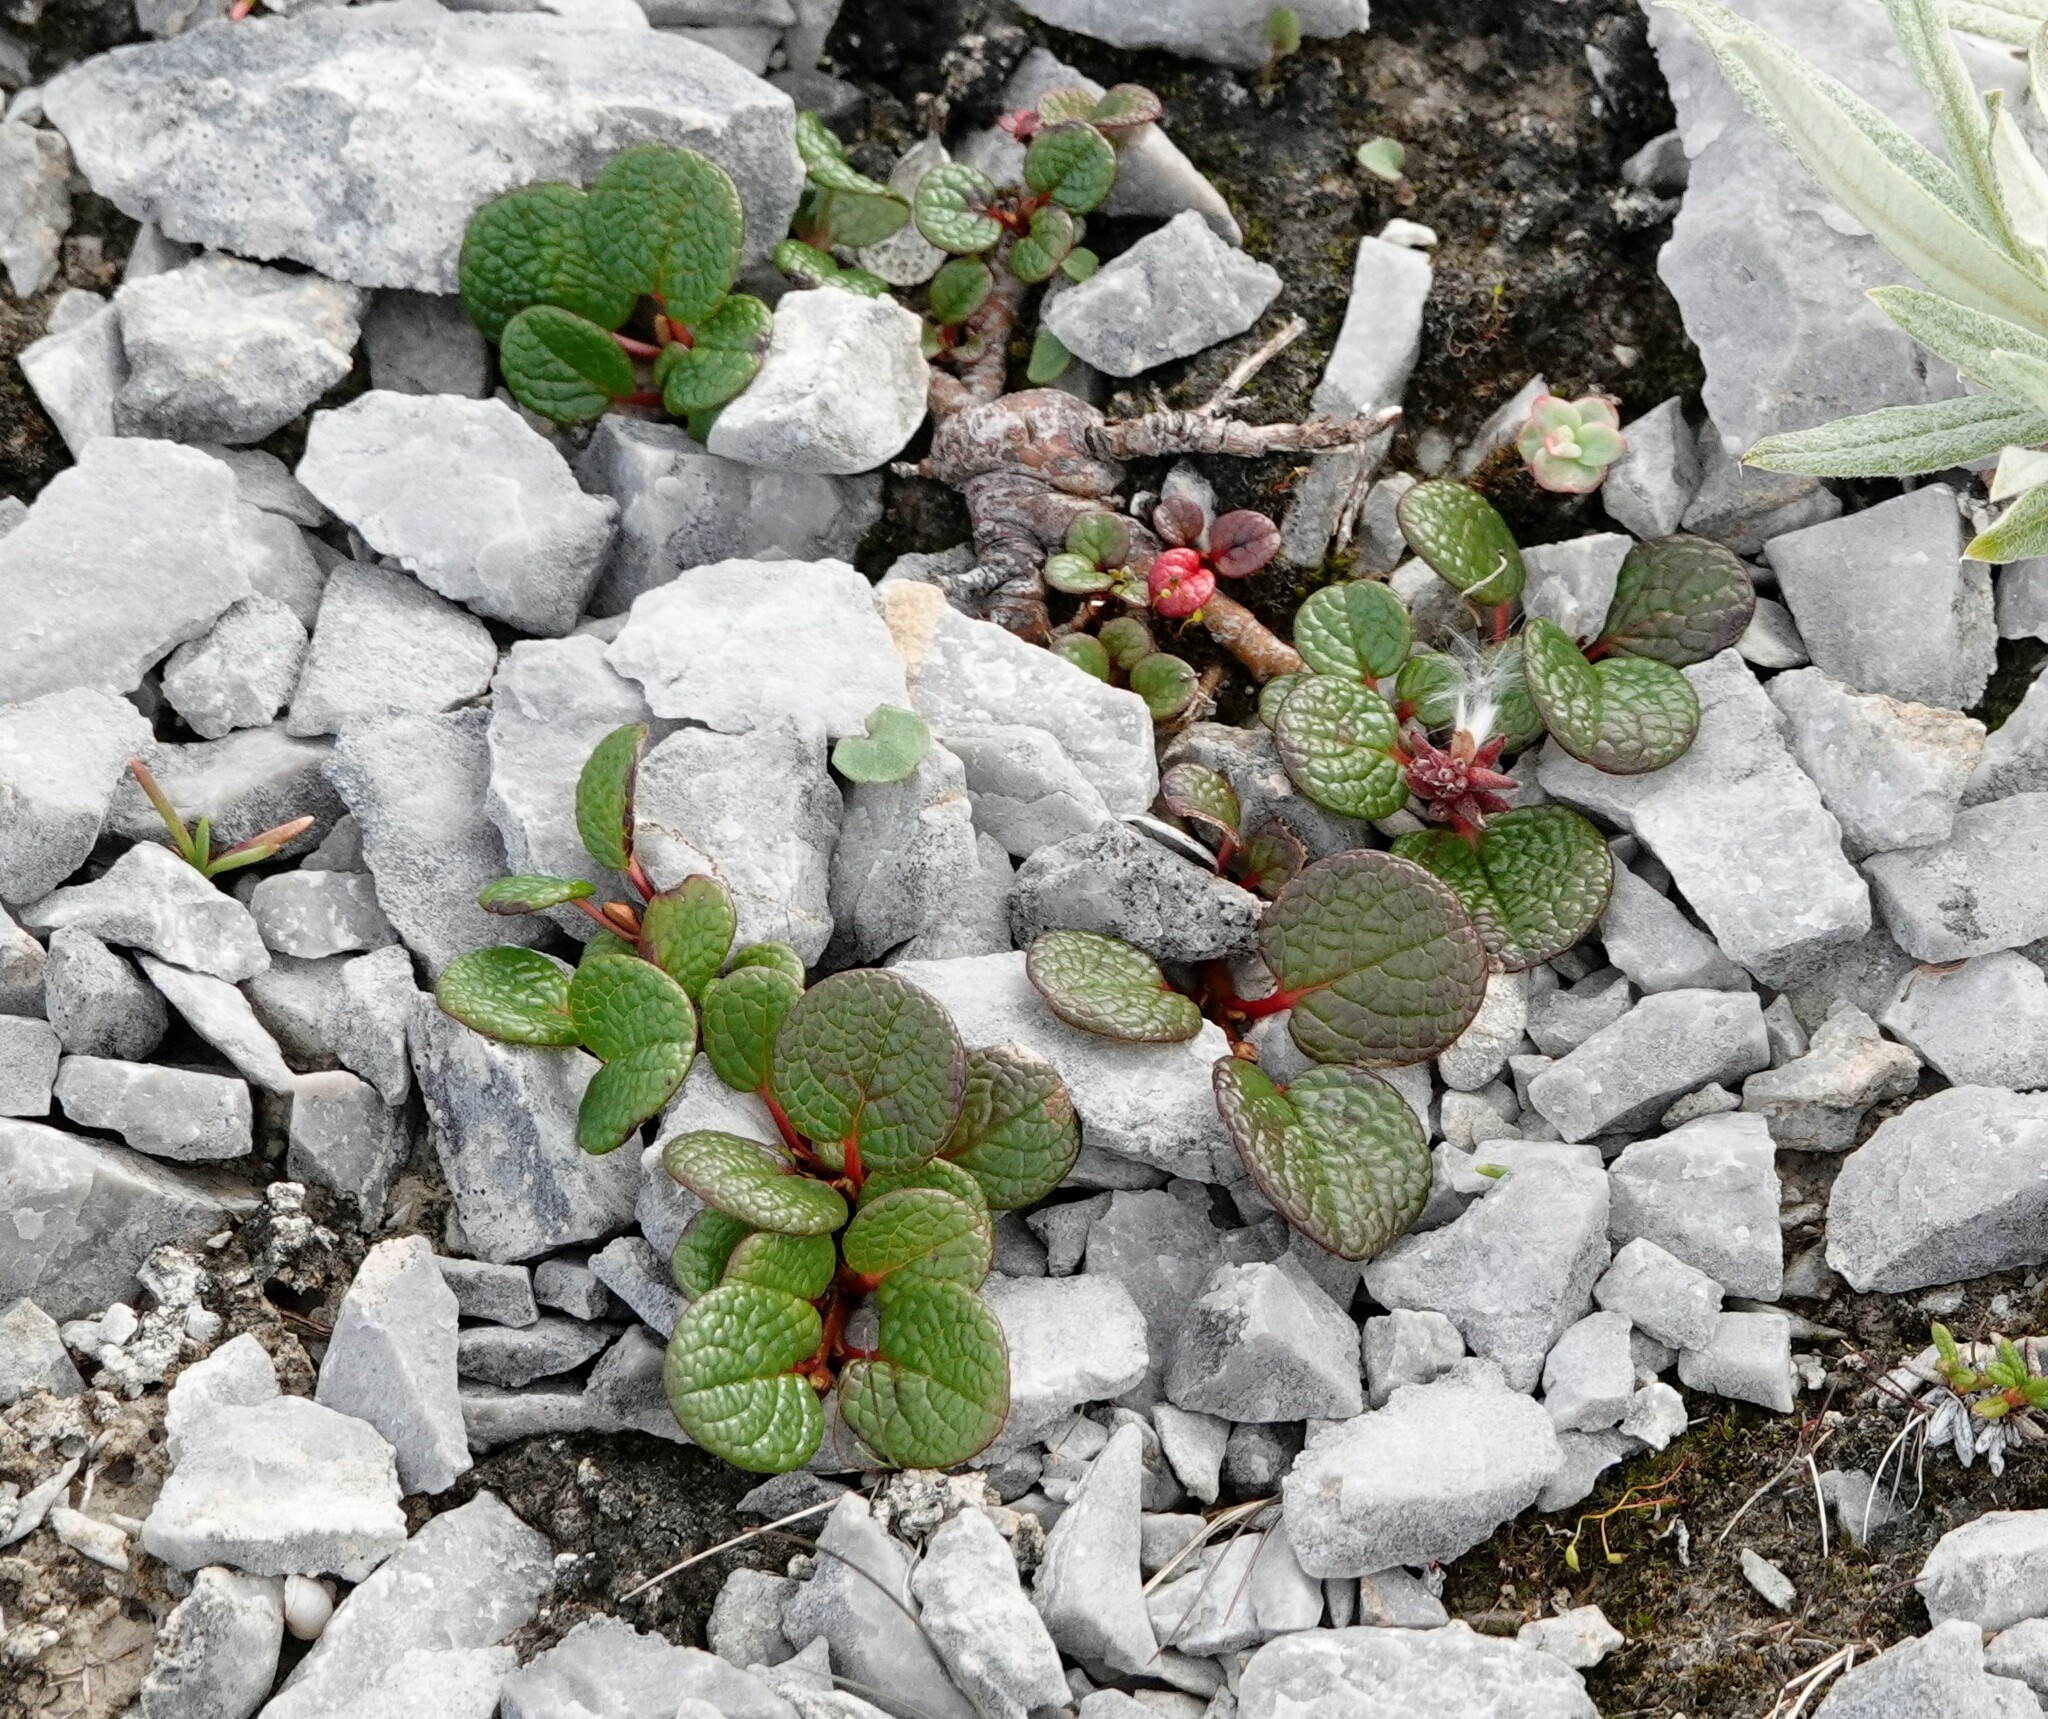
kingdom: Plantae
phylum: Tracheophyta
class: Magnoliopsida
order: Malpighiales
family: Salicaceae
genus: Salix
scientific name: Salix reticulata
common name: Net-leaved willow
